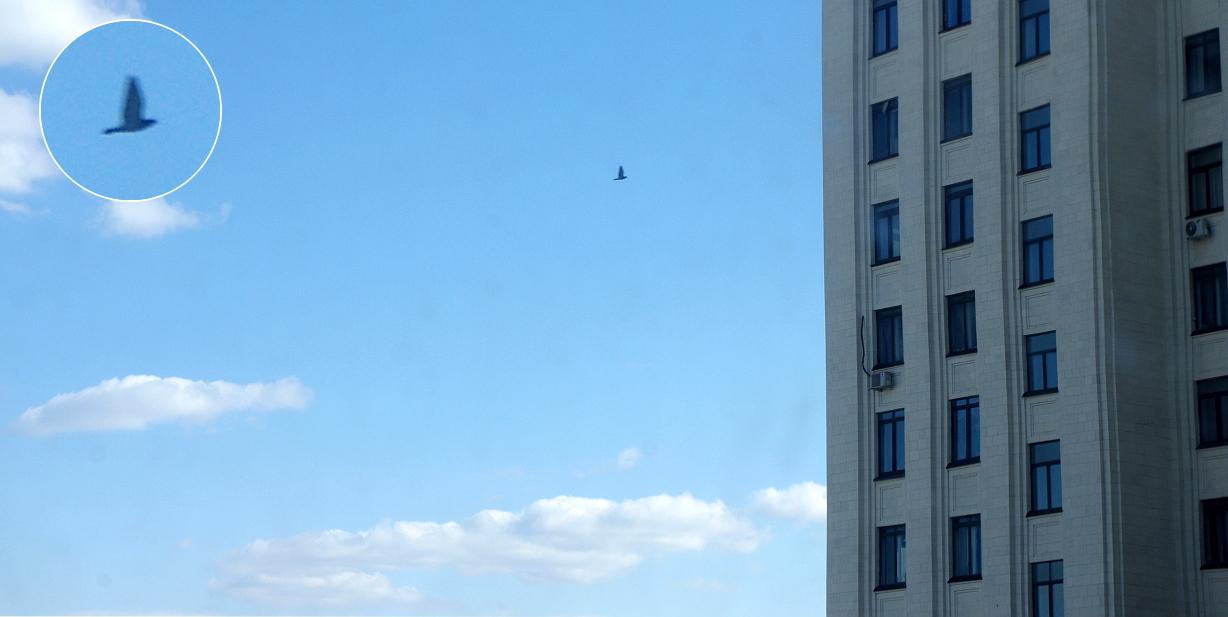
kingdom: Animalia
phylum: Chordata
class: Aves
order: Columbiformes
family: Columbidae
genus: Columba
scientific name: Columba livia
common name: Rock pigeon
